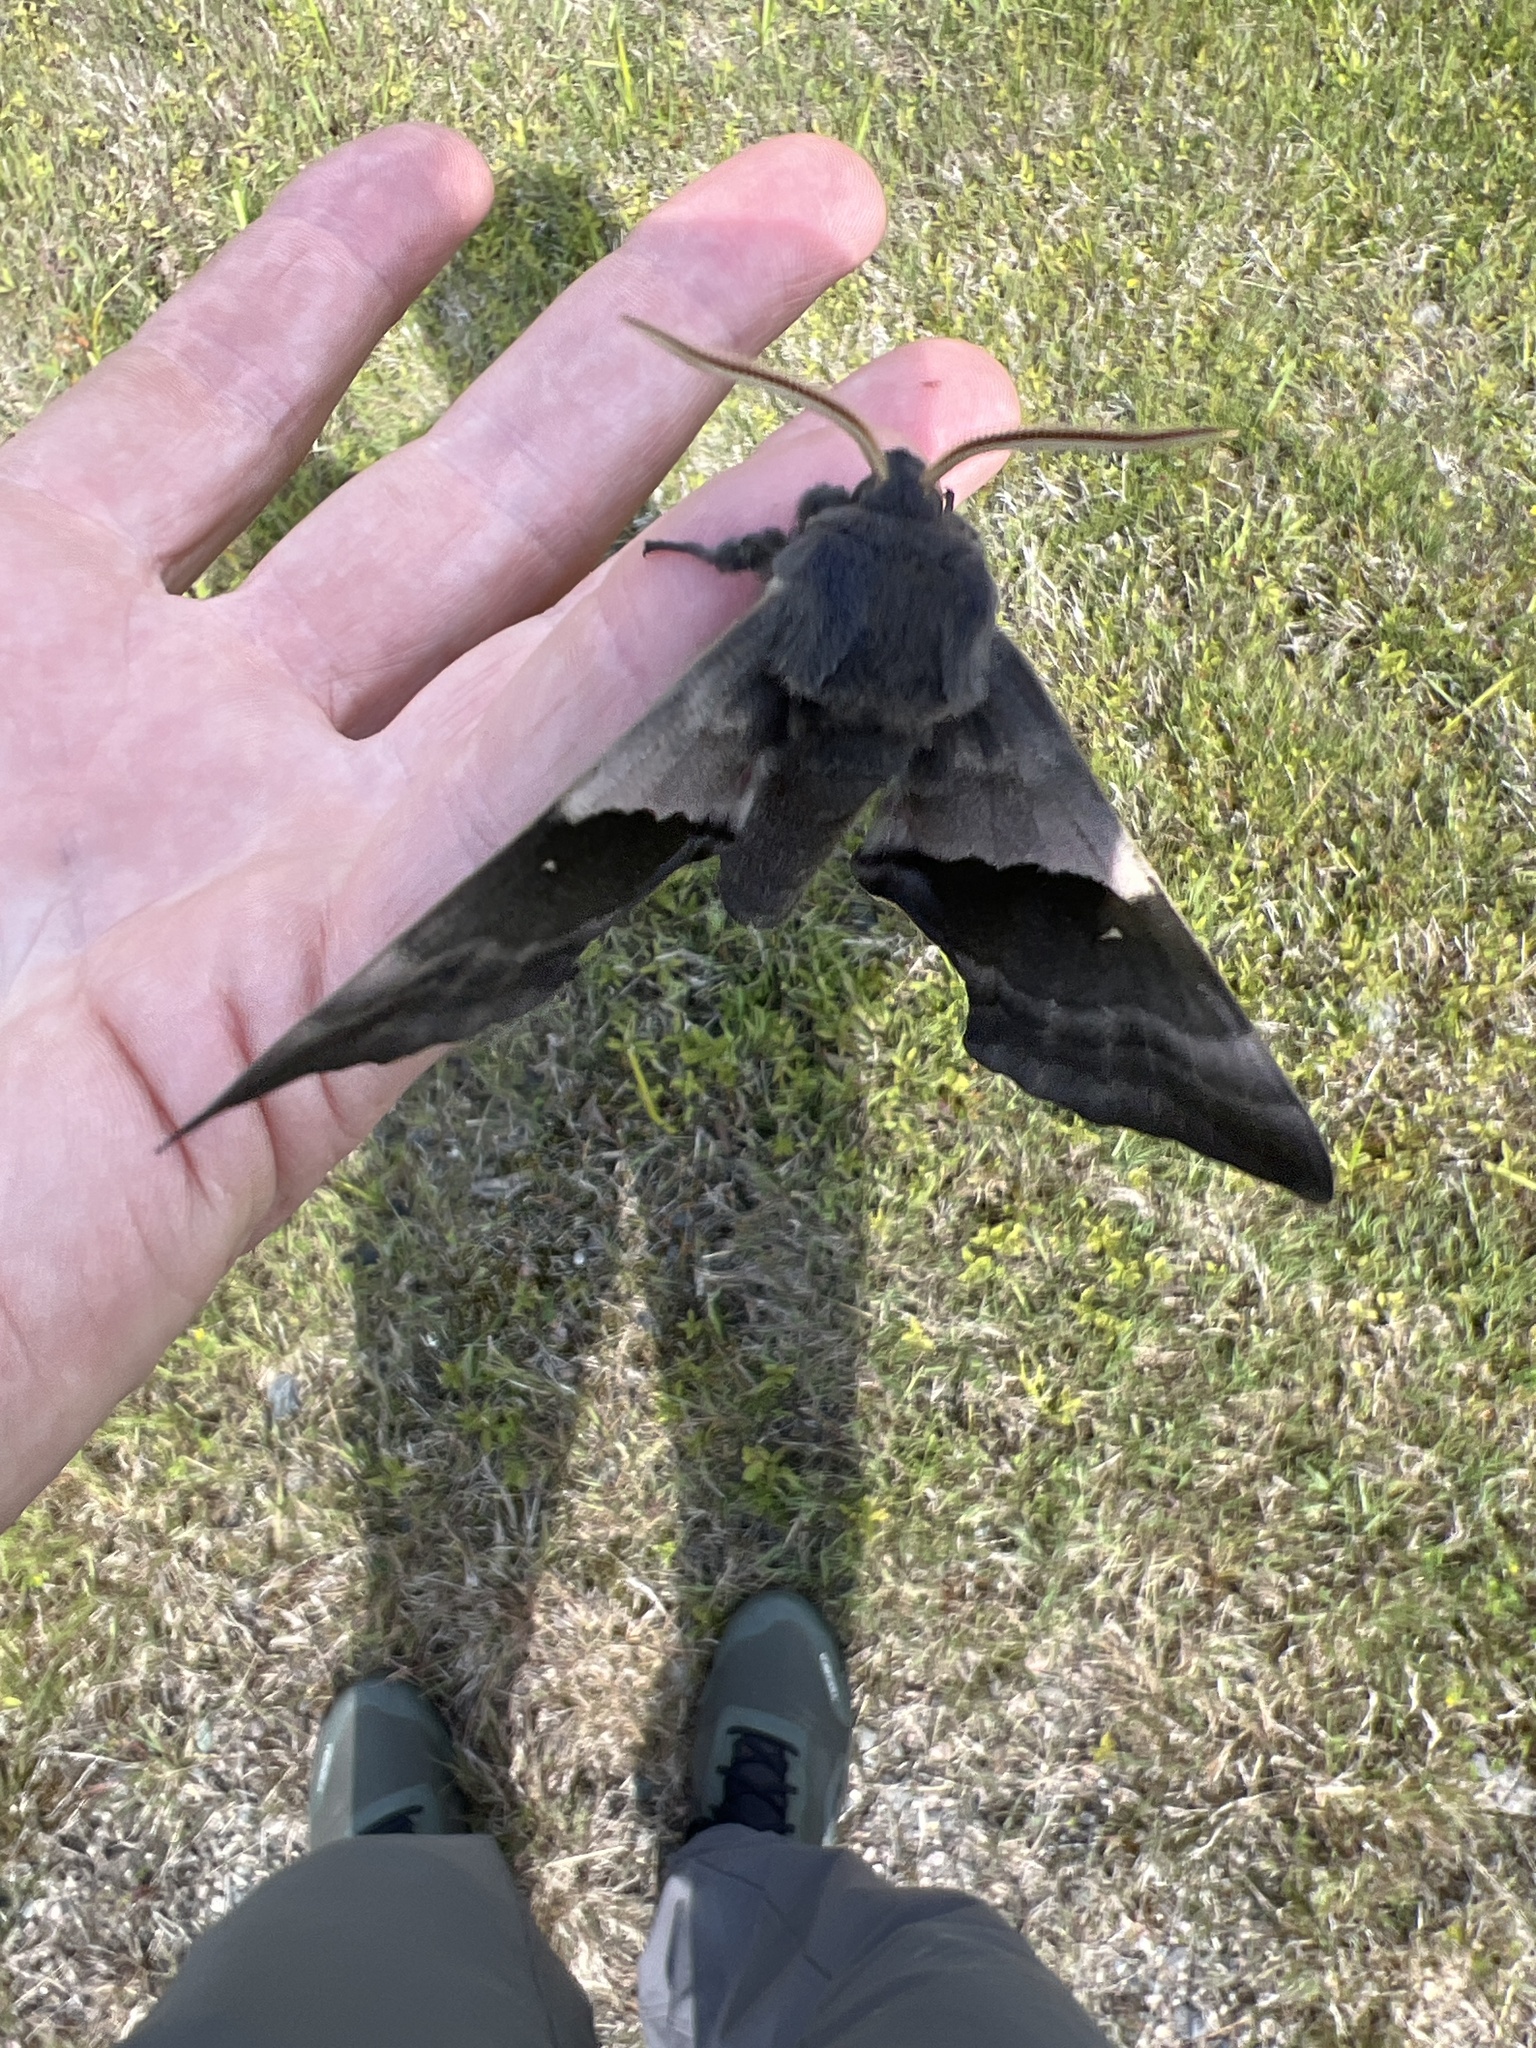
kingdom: Animalia
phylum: Arthropoda
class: Insecta
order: Lepidoptera
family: Sphingidae
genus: Pachysphinx
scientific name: Pachysphinx modesta
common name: Big poplar sphinx
